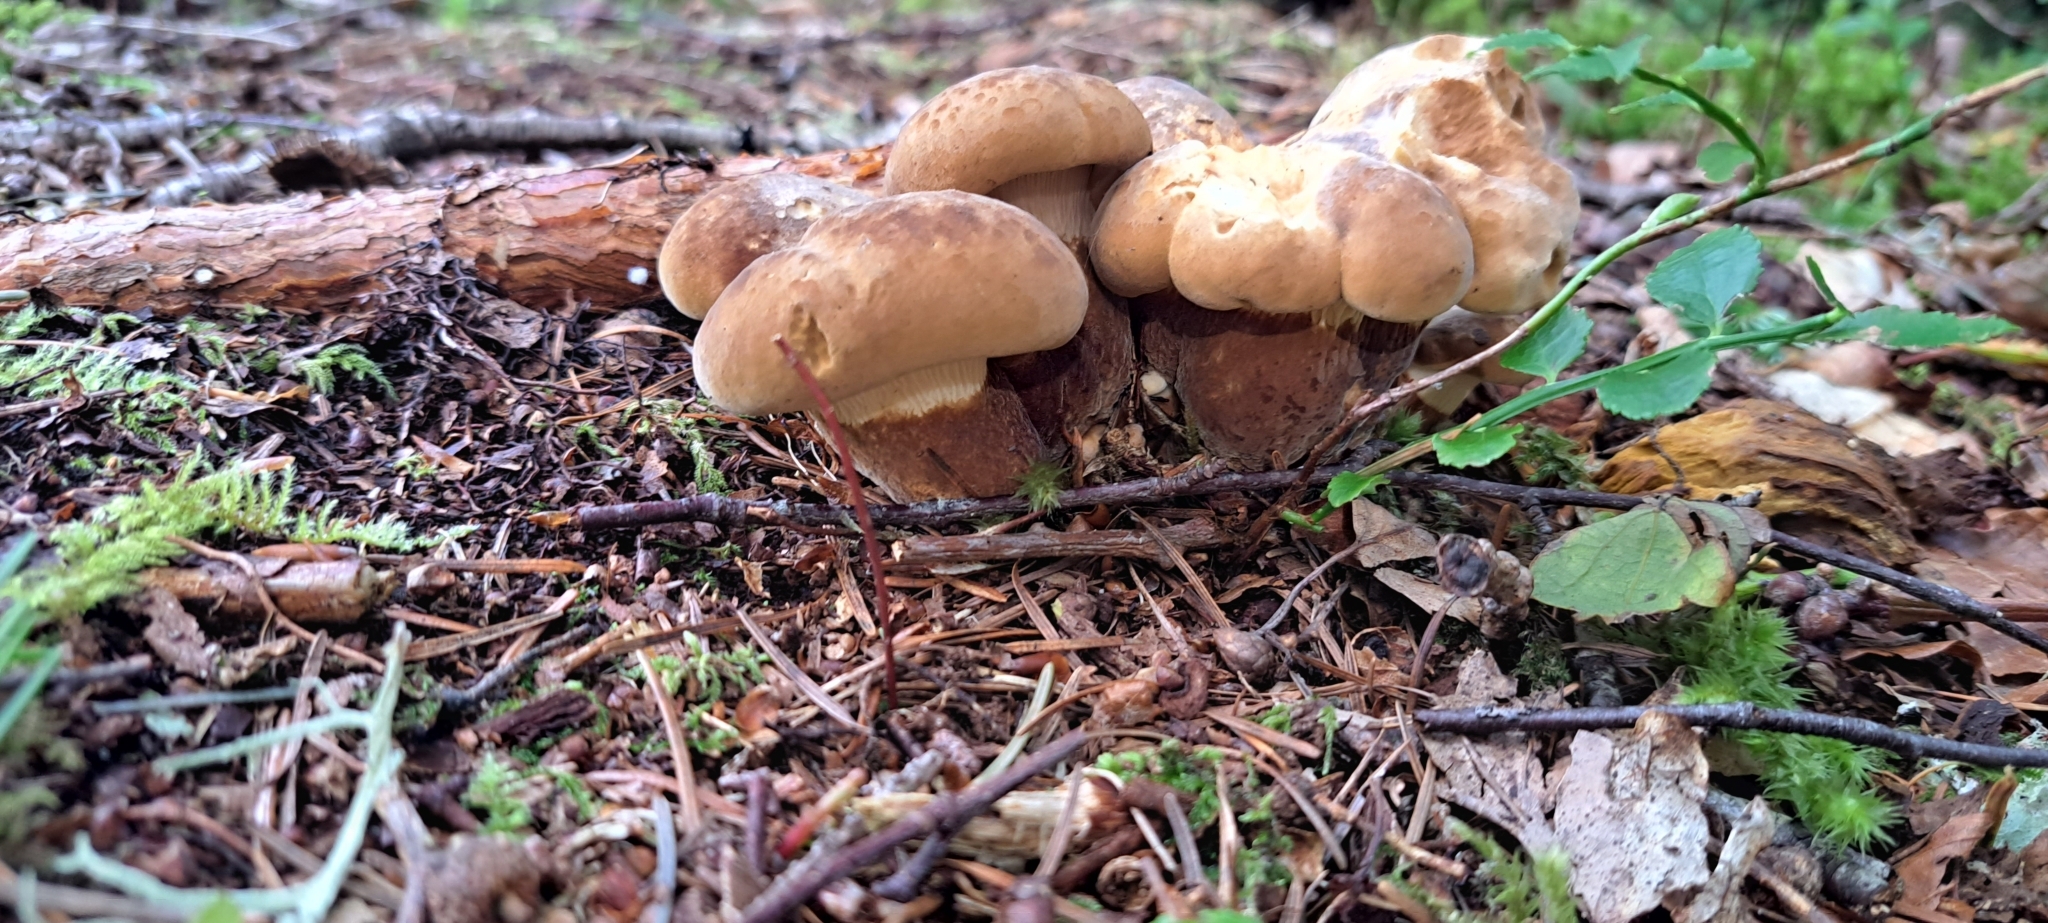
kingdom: Fungi
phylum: Basidiomycota
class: Agaricomycetes
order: Boletales
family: Tapinellaceae
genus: Tapinella
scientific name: Tapinella atrotomentosa
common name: Velvet rollrim
